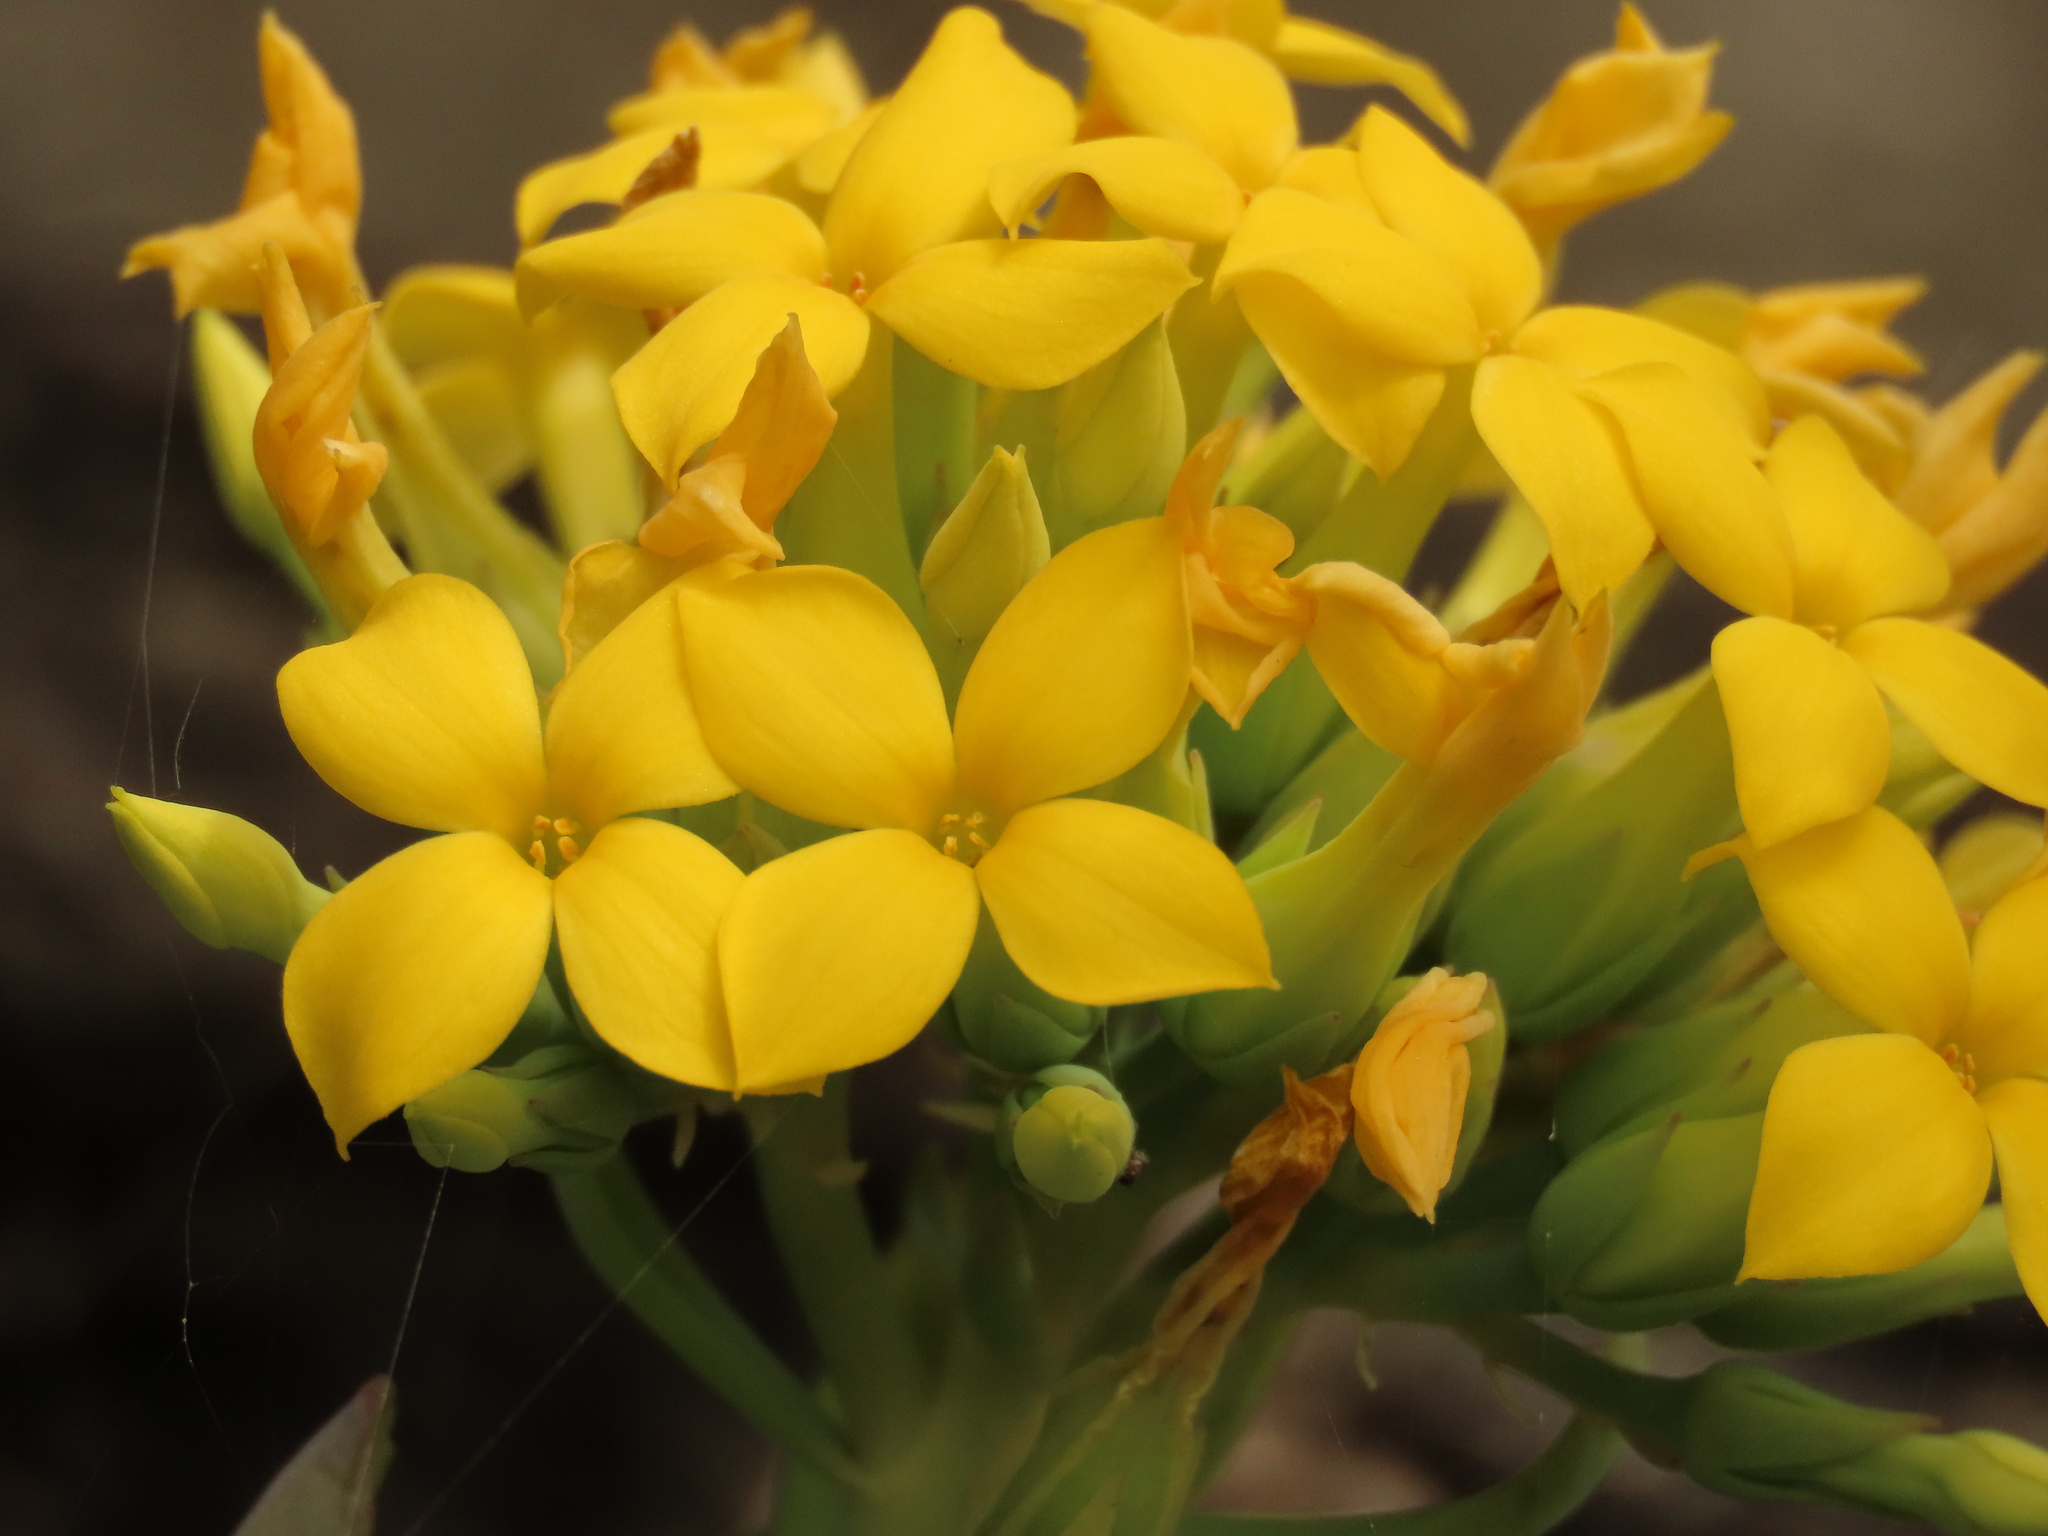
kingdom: Plantae
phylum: Tracheophyta
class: Magnoliopsida
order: Saxifragales
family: Crassulaceae
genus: Kalanchoe
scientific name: Kalanchoe tashiroi
